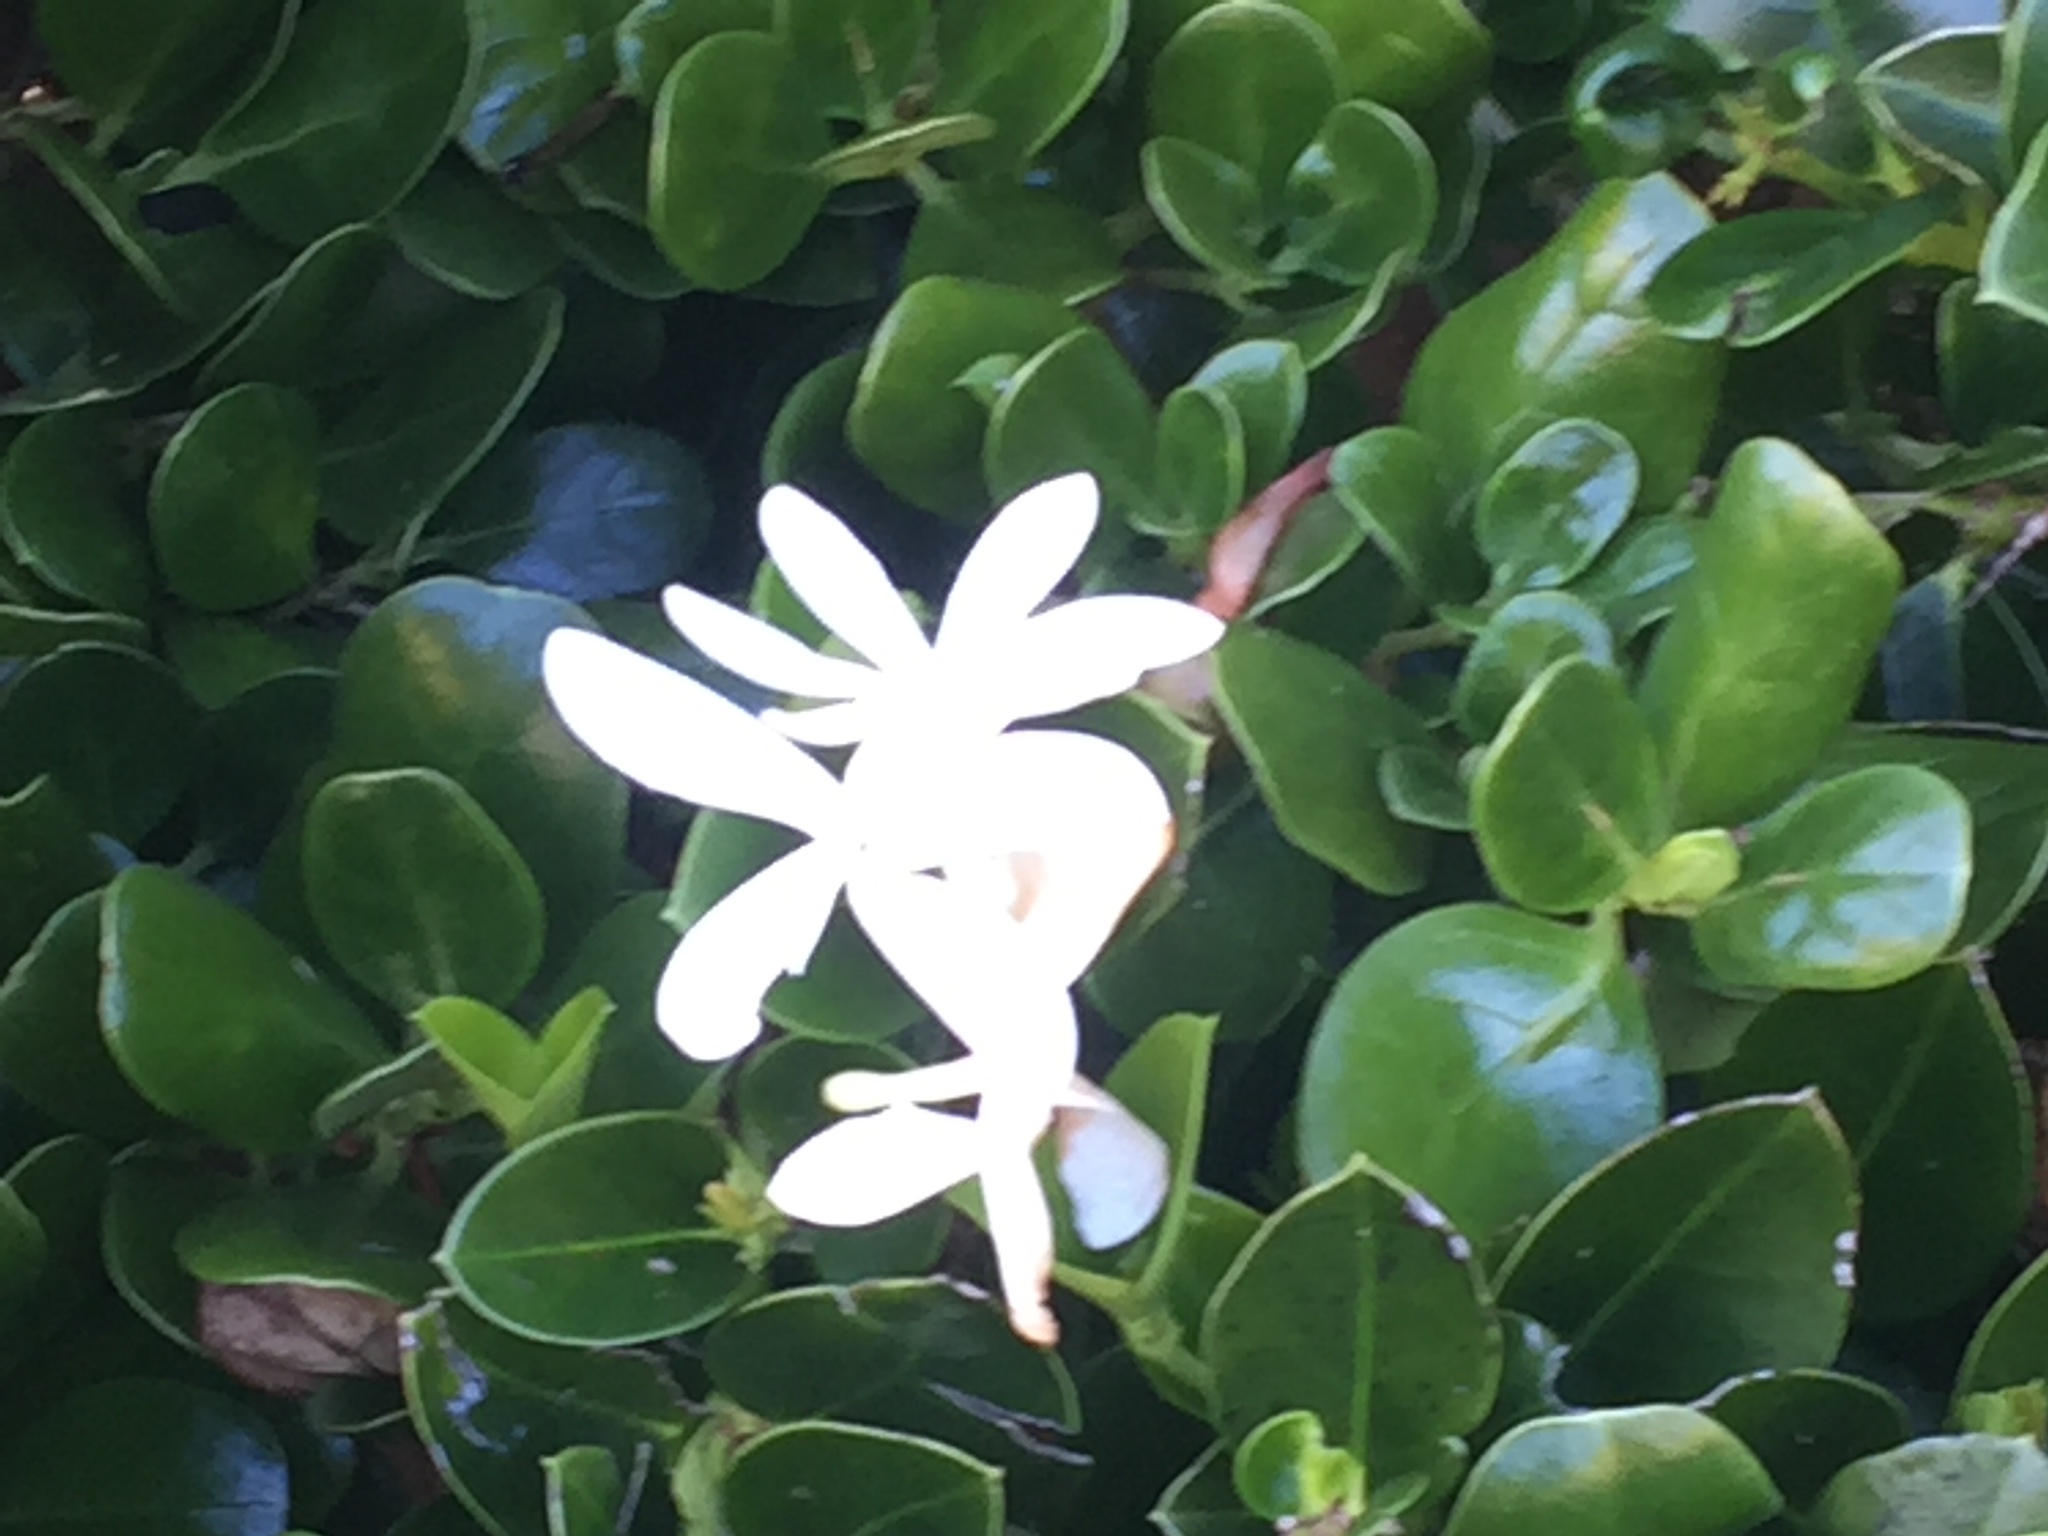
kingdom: Plantae
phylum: Tracheophyta
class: Magnoliopsida
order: Gentianales
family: Apocynaceae
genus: Carissa
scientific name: Carissa macrocarpa
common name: Natal plum
